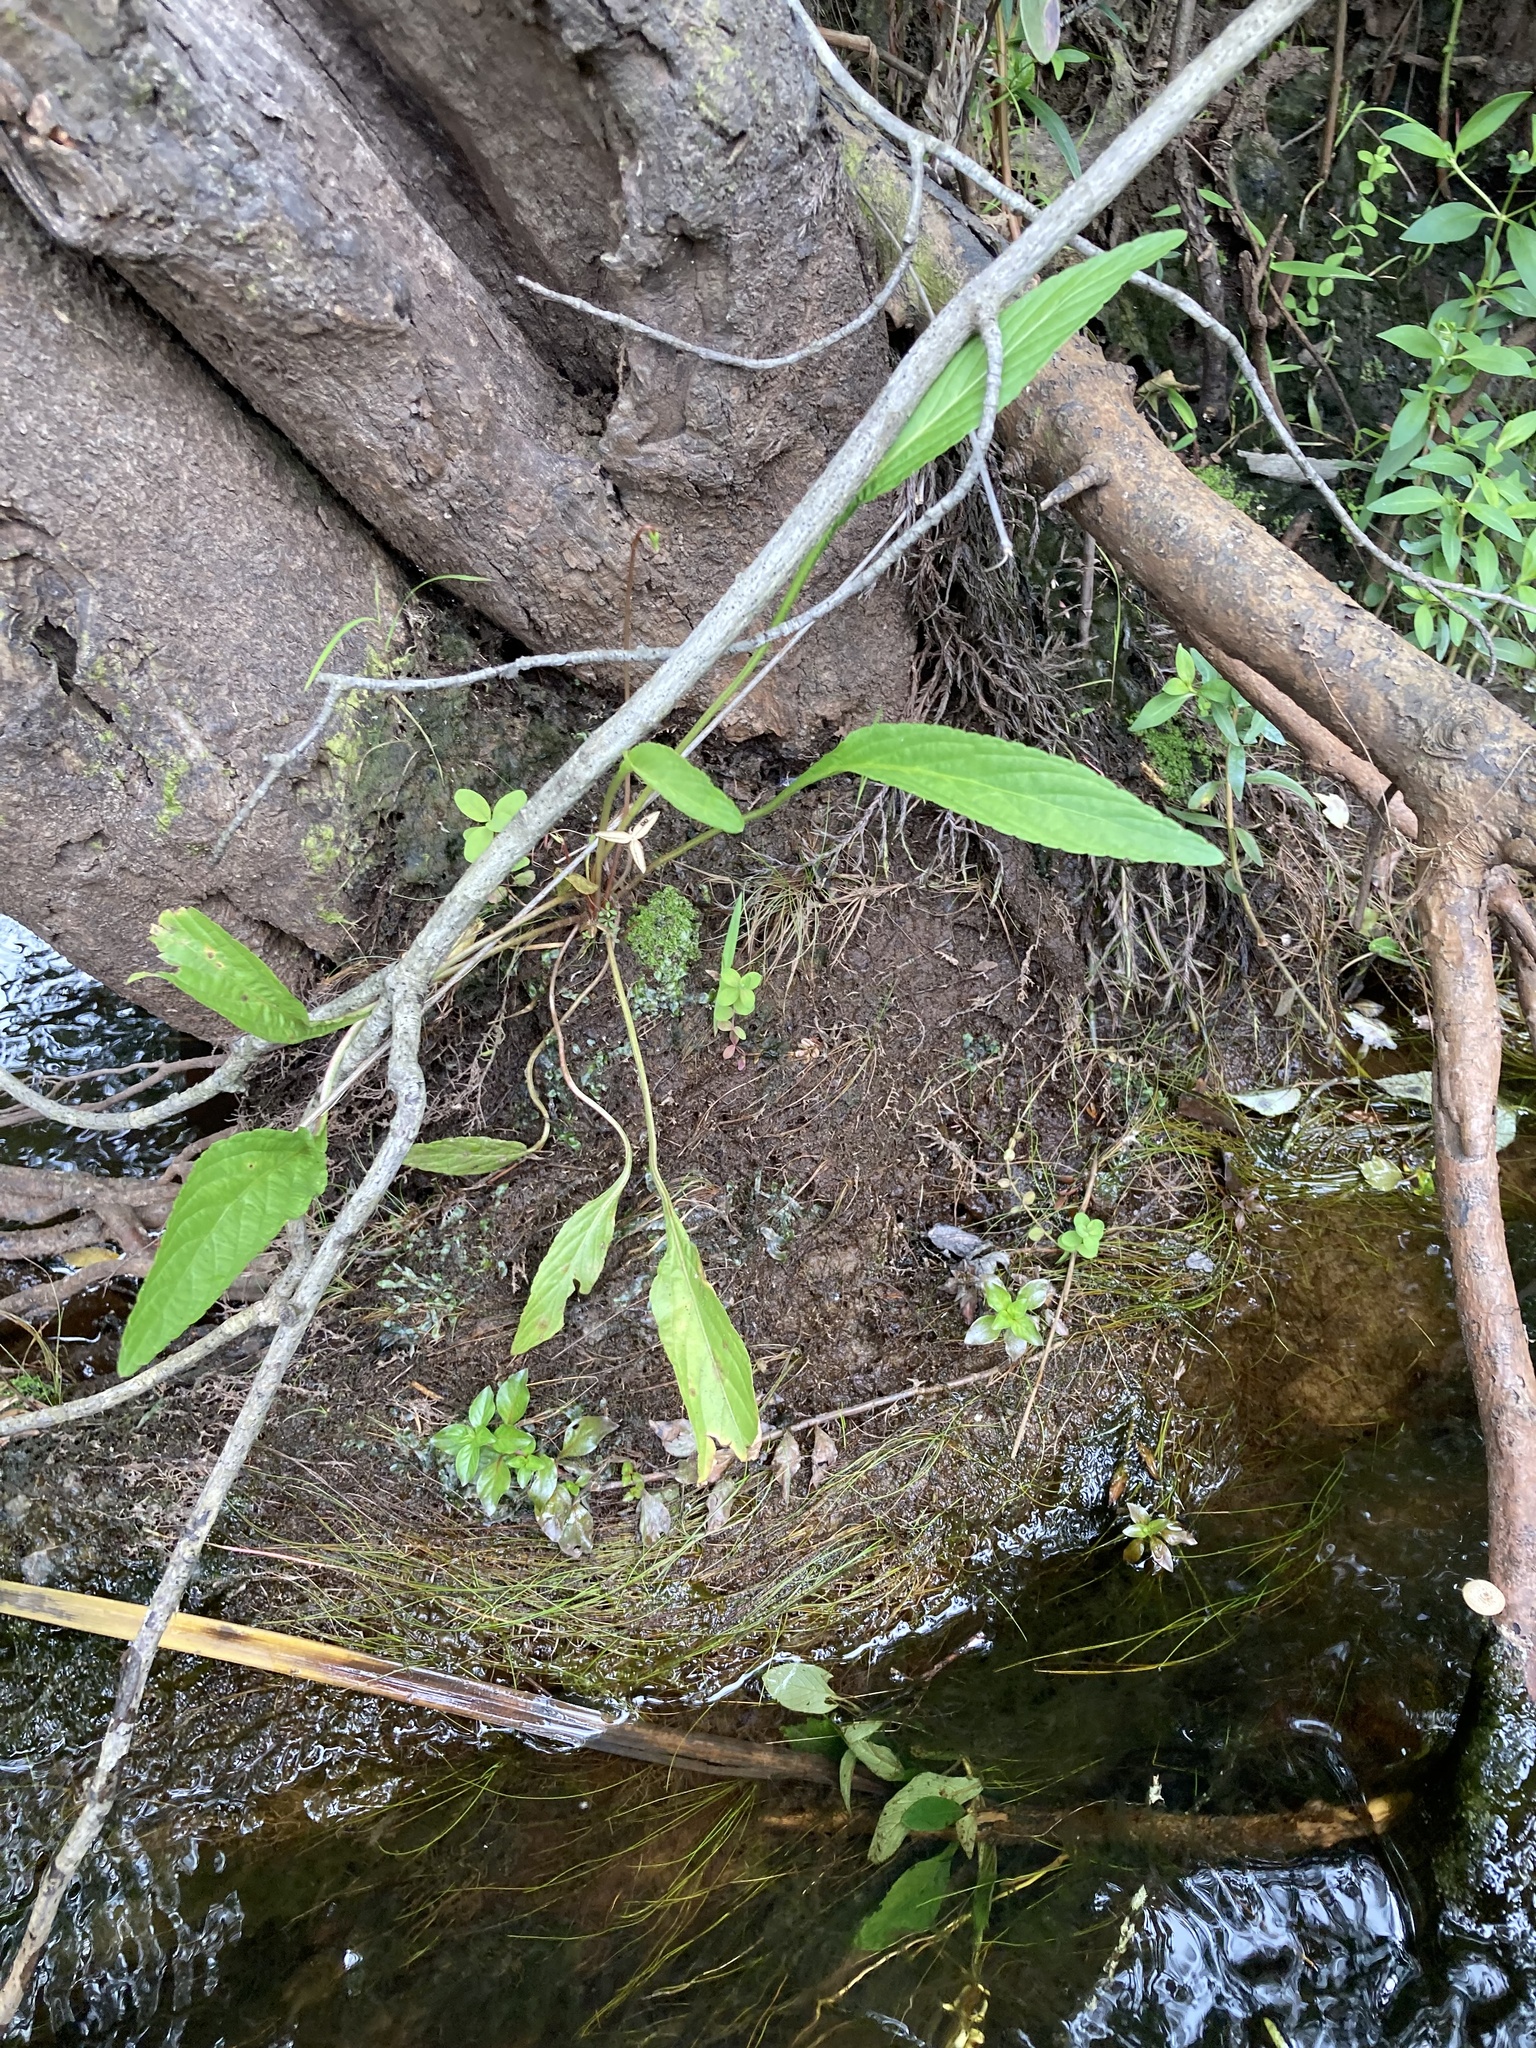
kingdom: Plantae
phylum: Tracheophyta
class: Magnoliopsida
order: Malpighiales
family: Violaceae
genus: Viola
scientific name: Viola lanceolata
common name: Bog white violet
